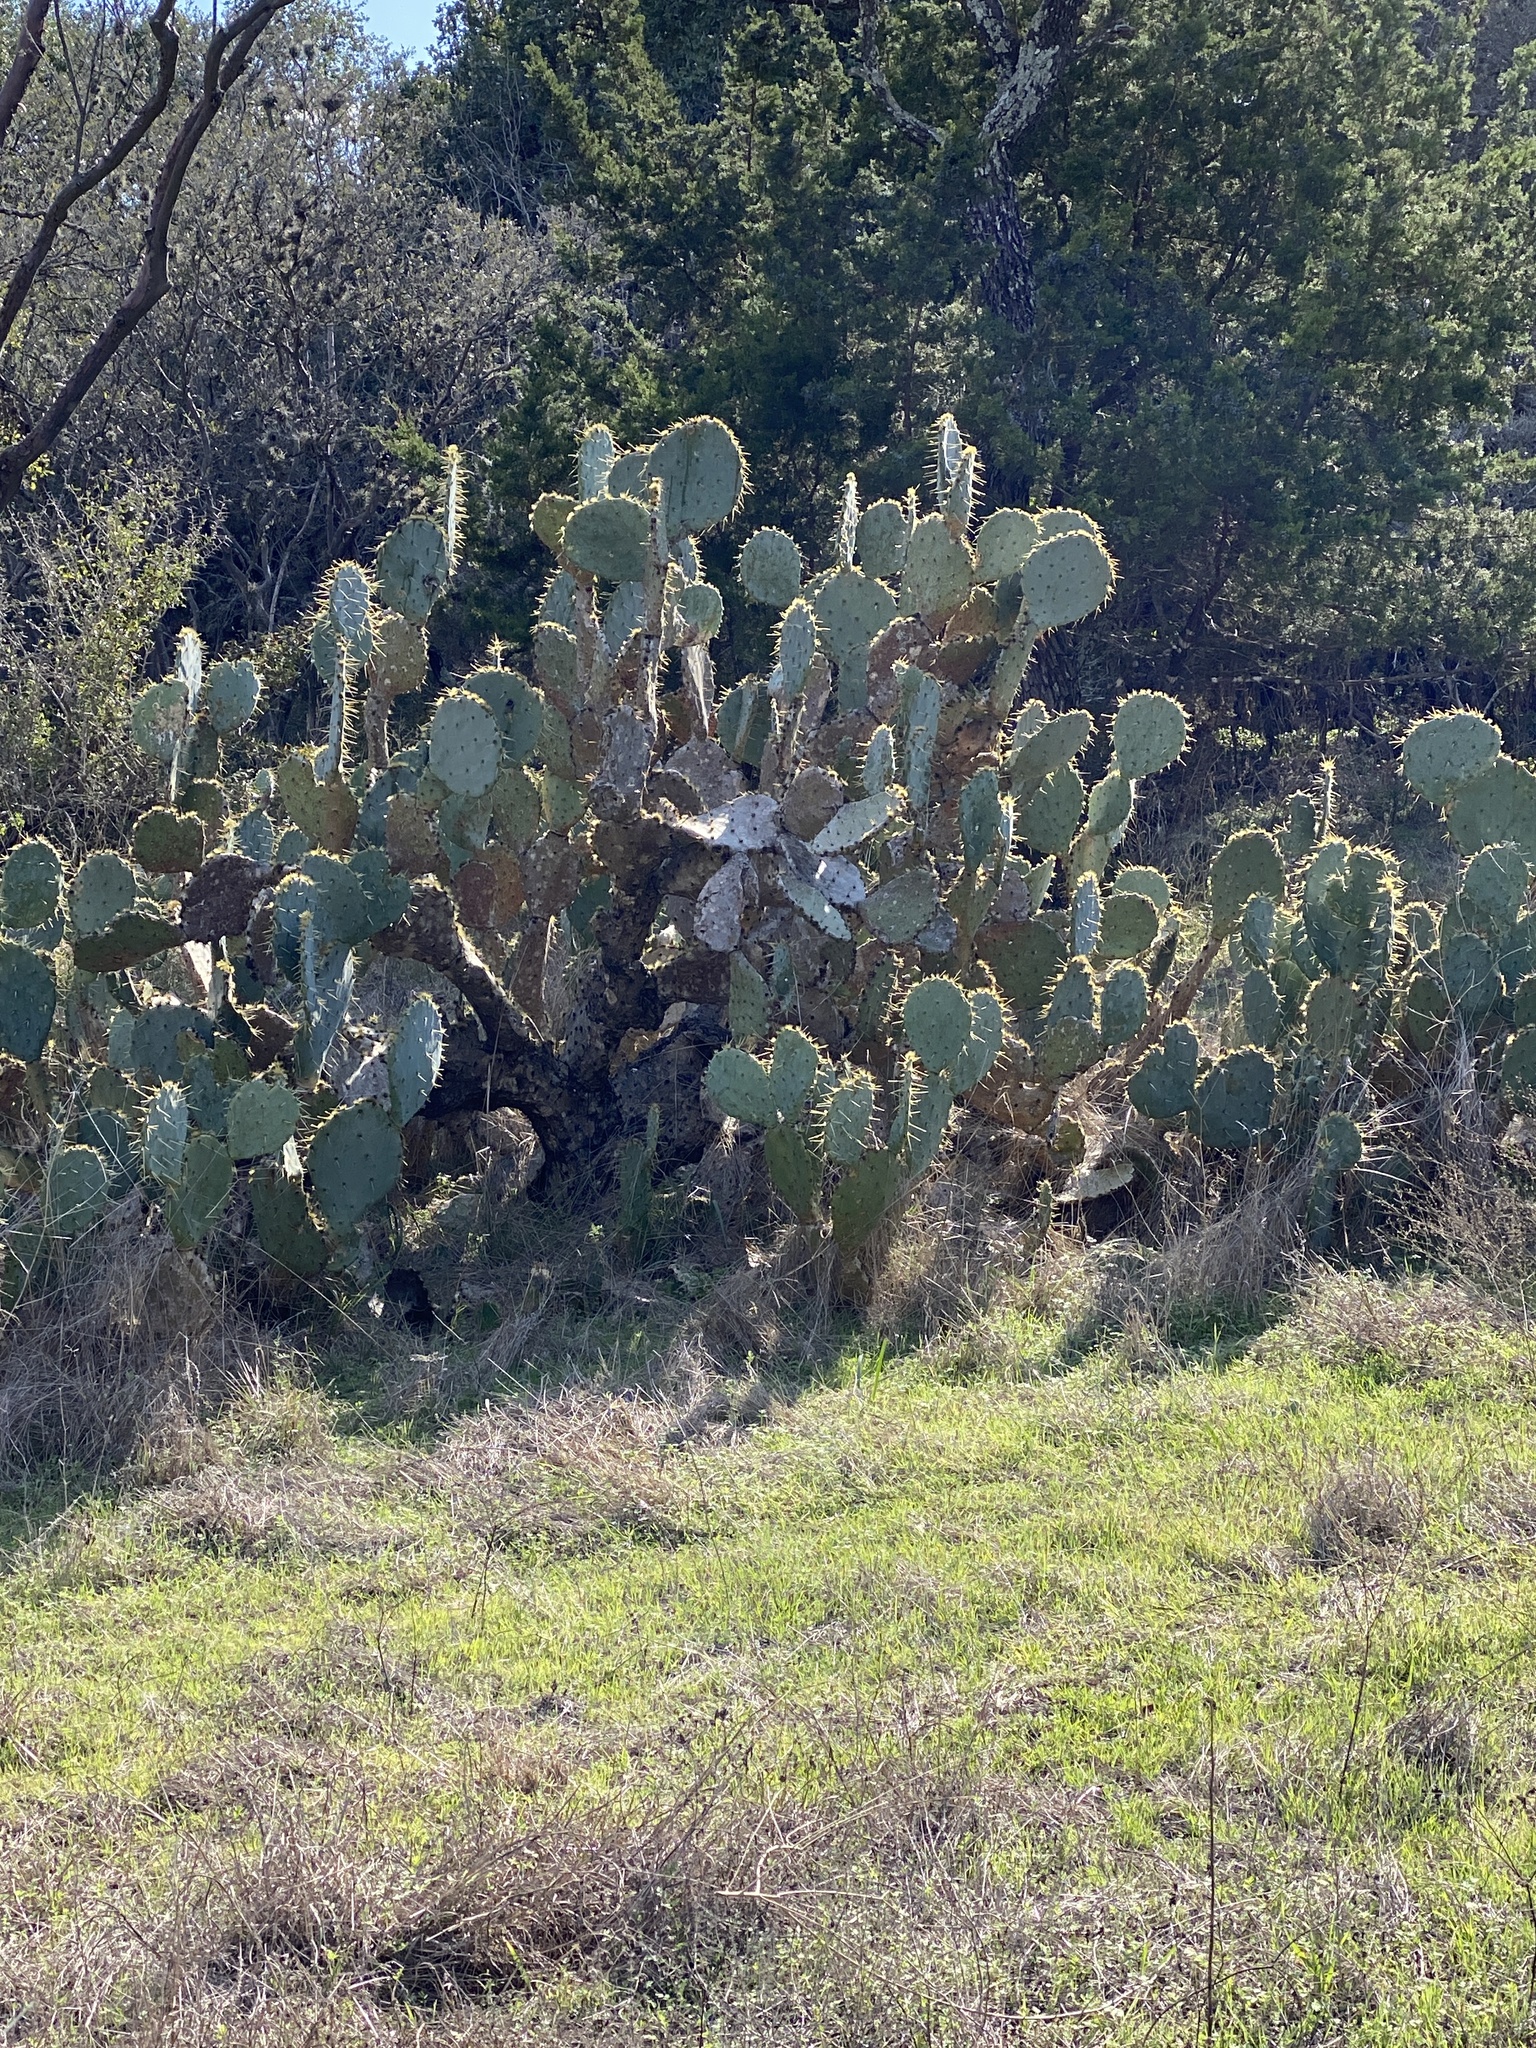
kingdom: Plantae
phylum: Tracheophyta
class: Magnoliopsida
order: Caryophyllales
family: Cactaceae
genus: Opuntia
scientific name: Opuntia engelmannii
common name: Cactus-apple
